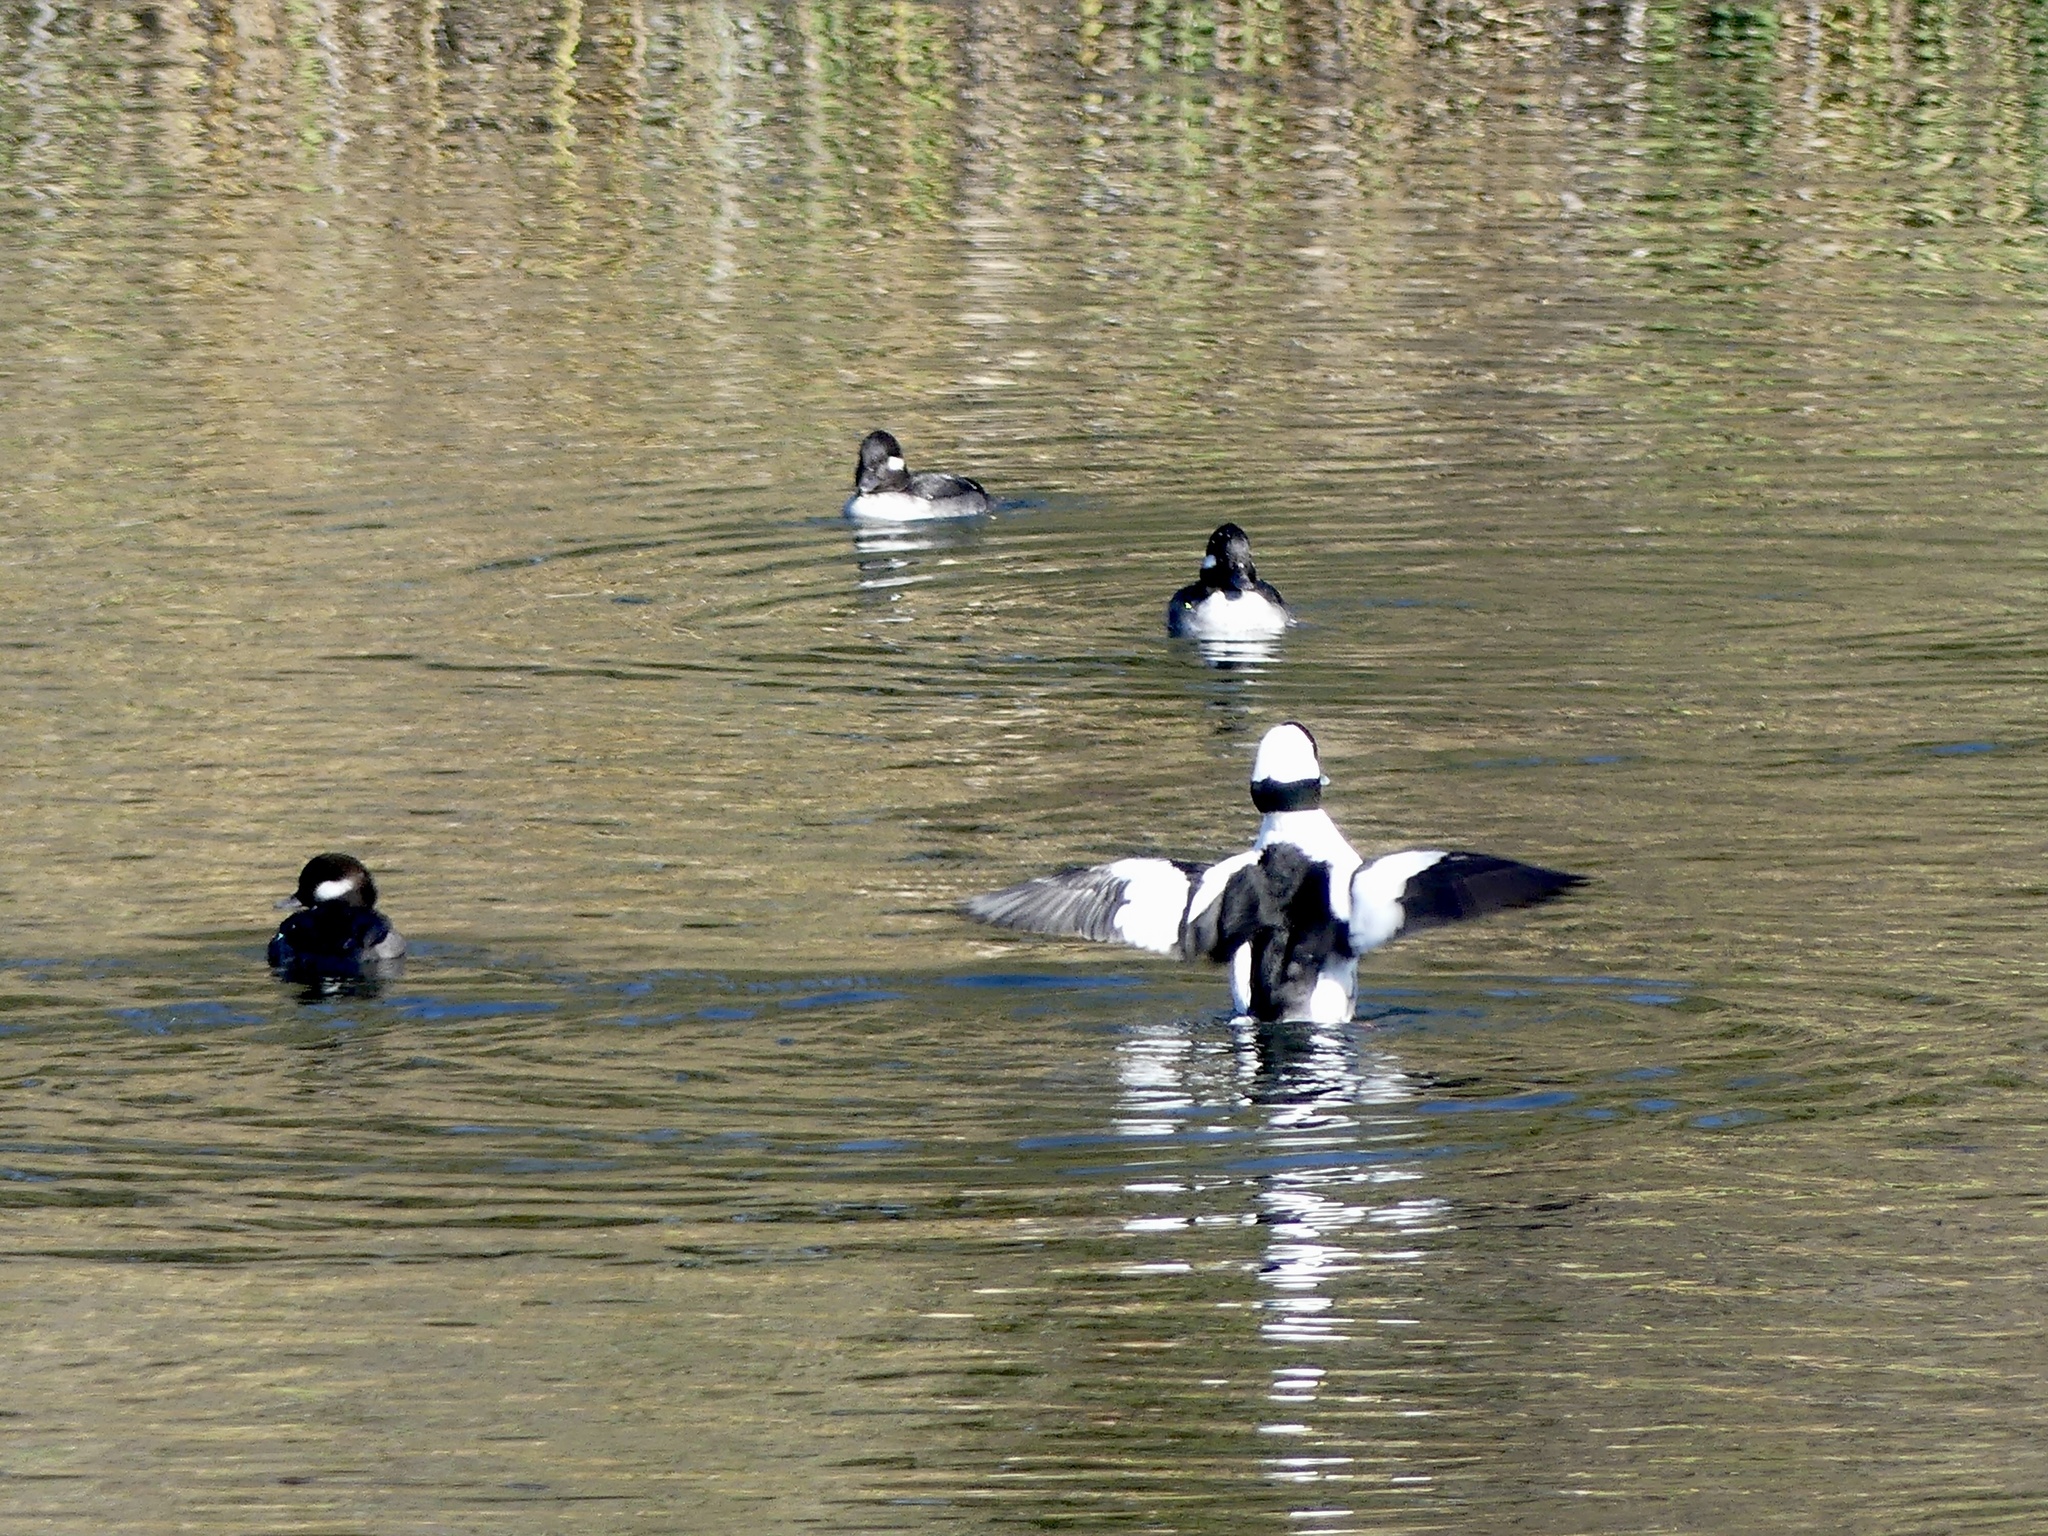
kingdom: Animalia
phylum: Chordata
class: Aves
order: Anseriformes
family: Anatidae
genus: Bucephala
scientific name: Bucephala albeola
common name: Bufflehead
